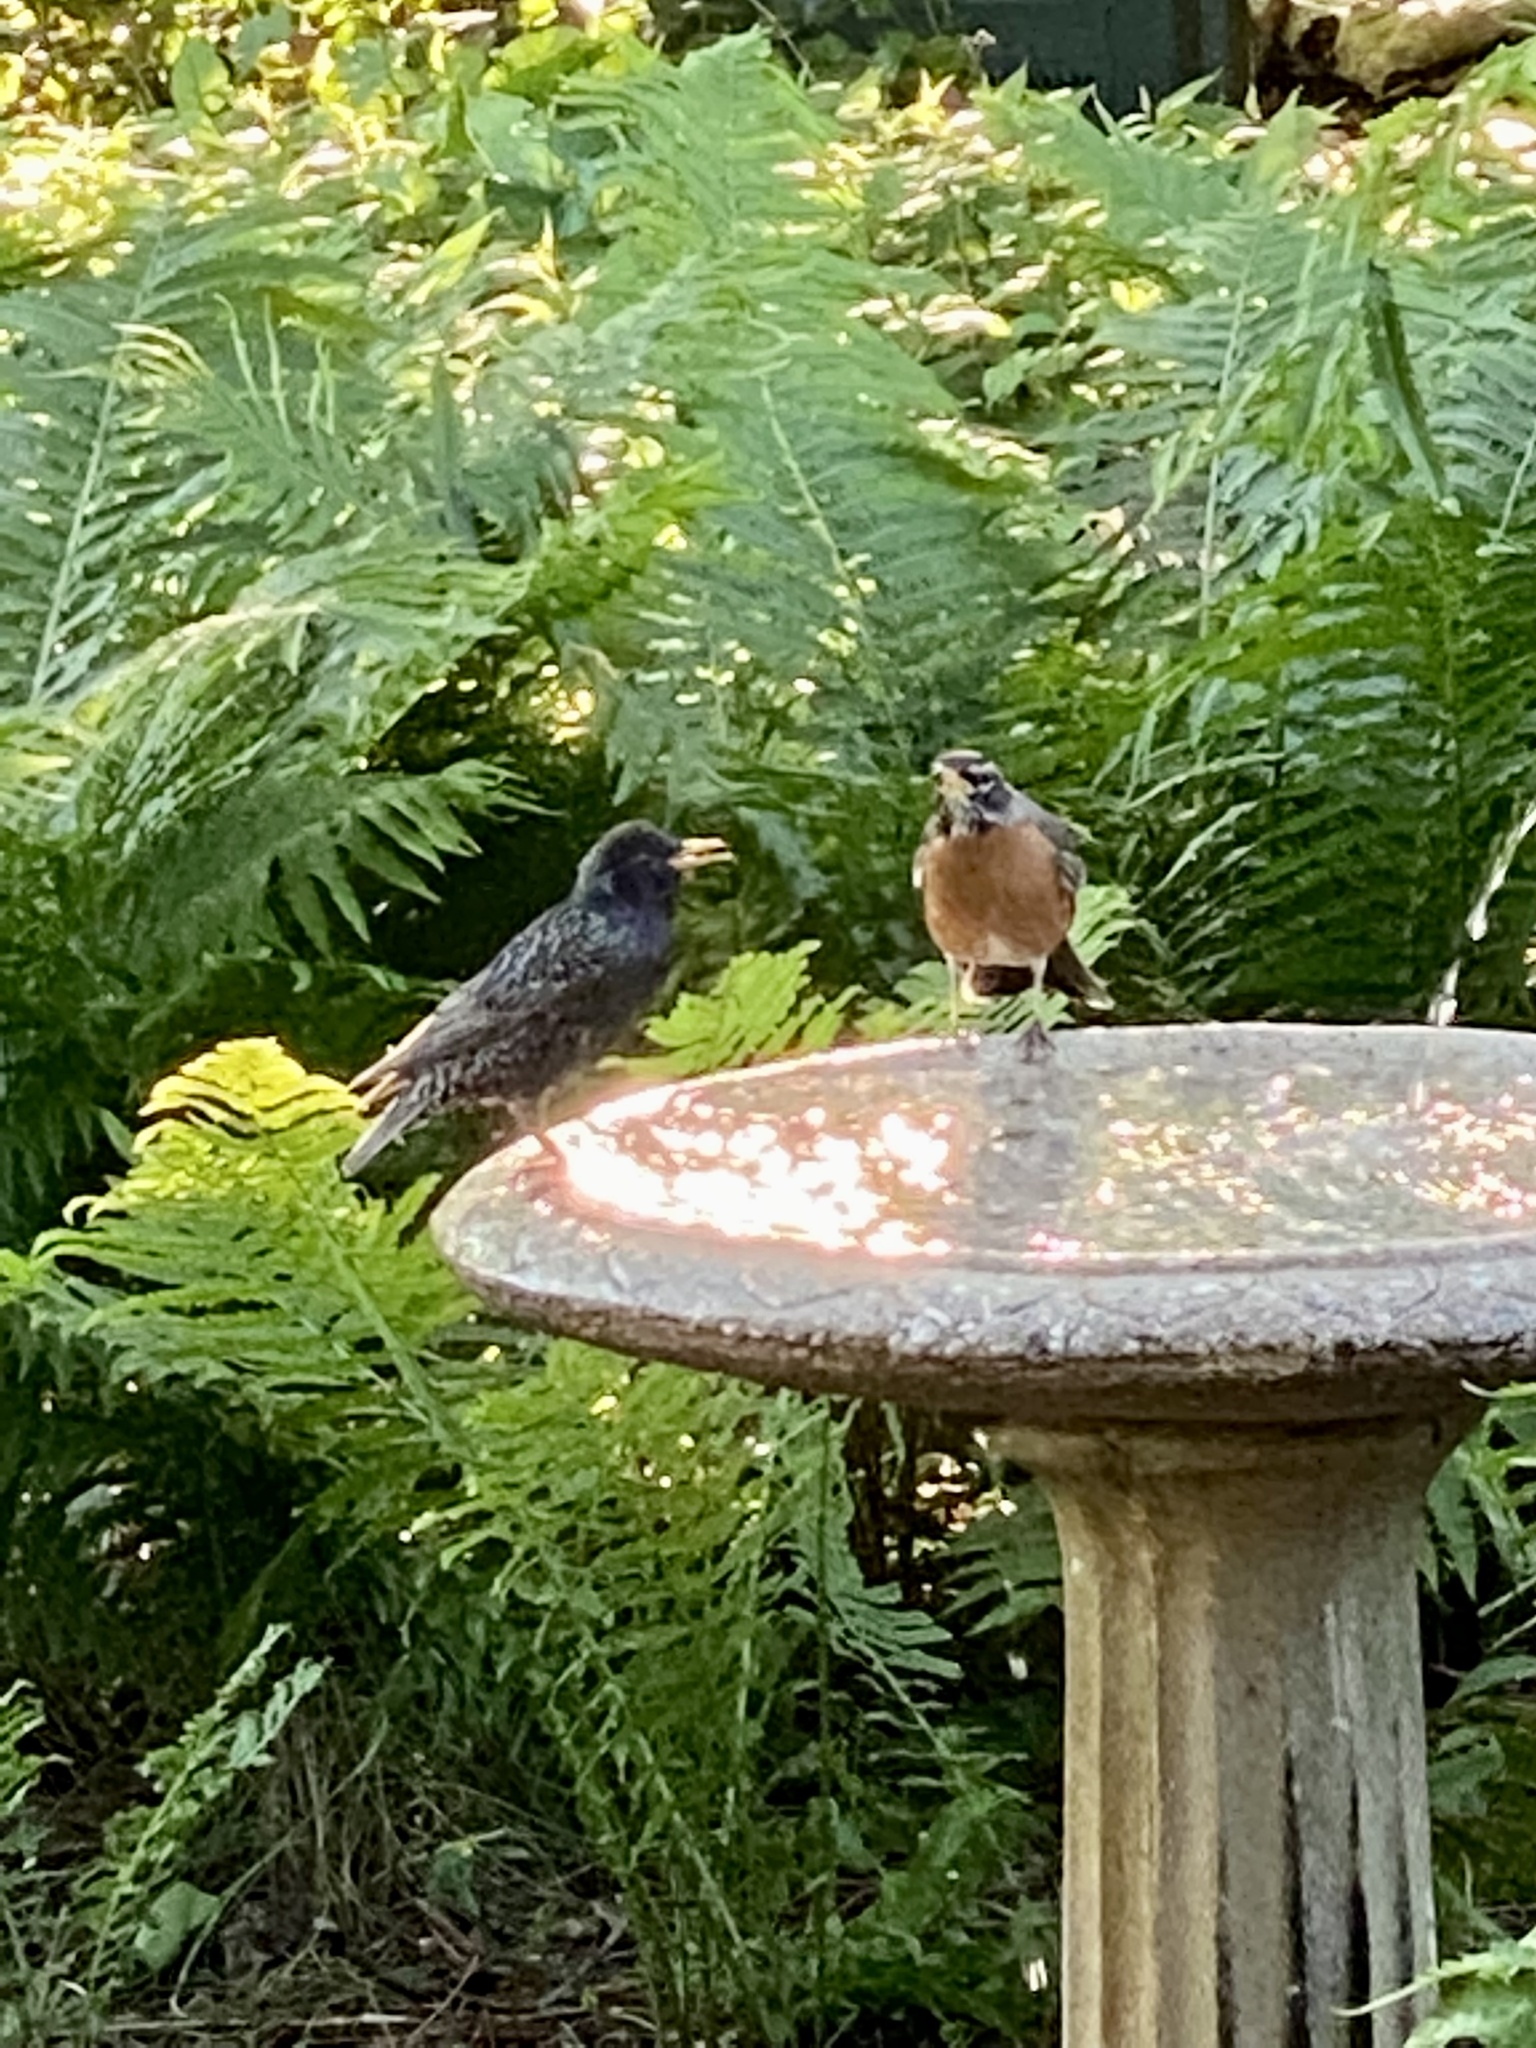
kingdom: Animalia
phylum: Chordata
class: Aves
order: Passeriformes
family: Sturnidae
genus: Sturnus
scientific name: Sturnus vulgaris
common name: Common starling
